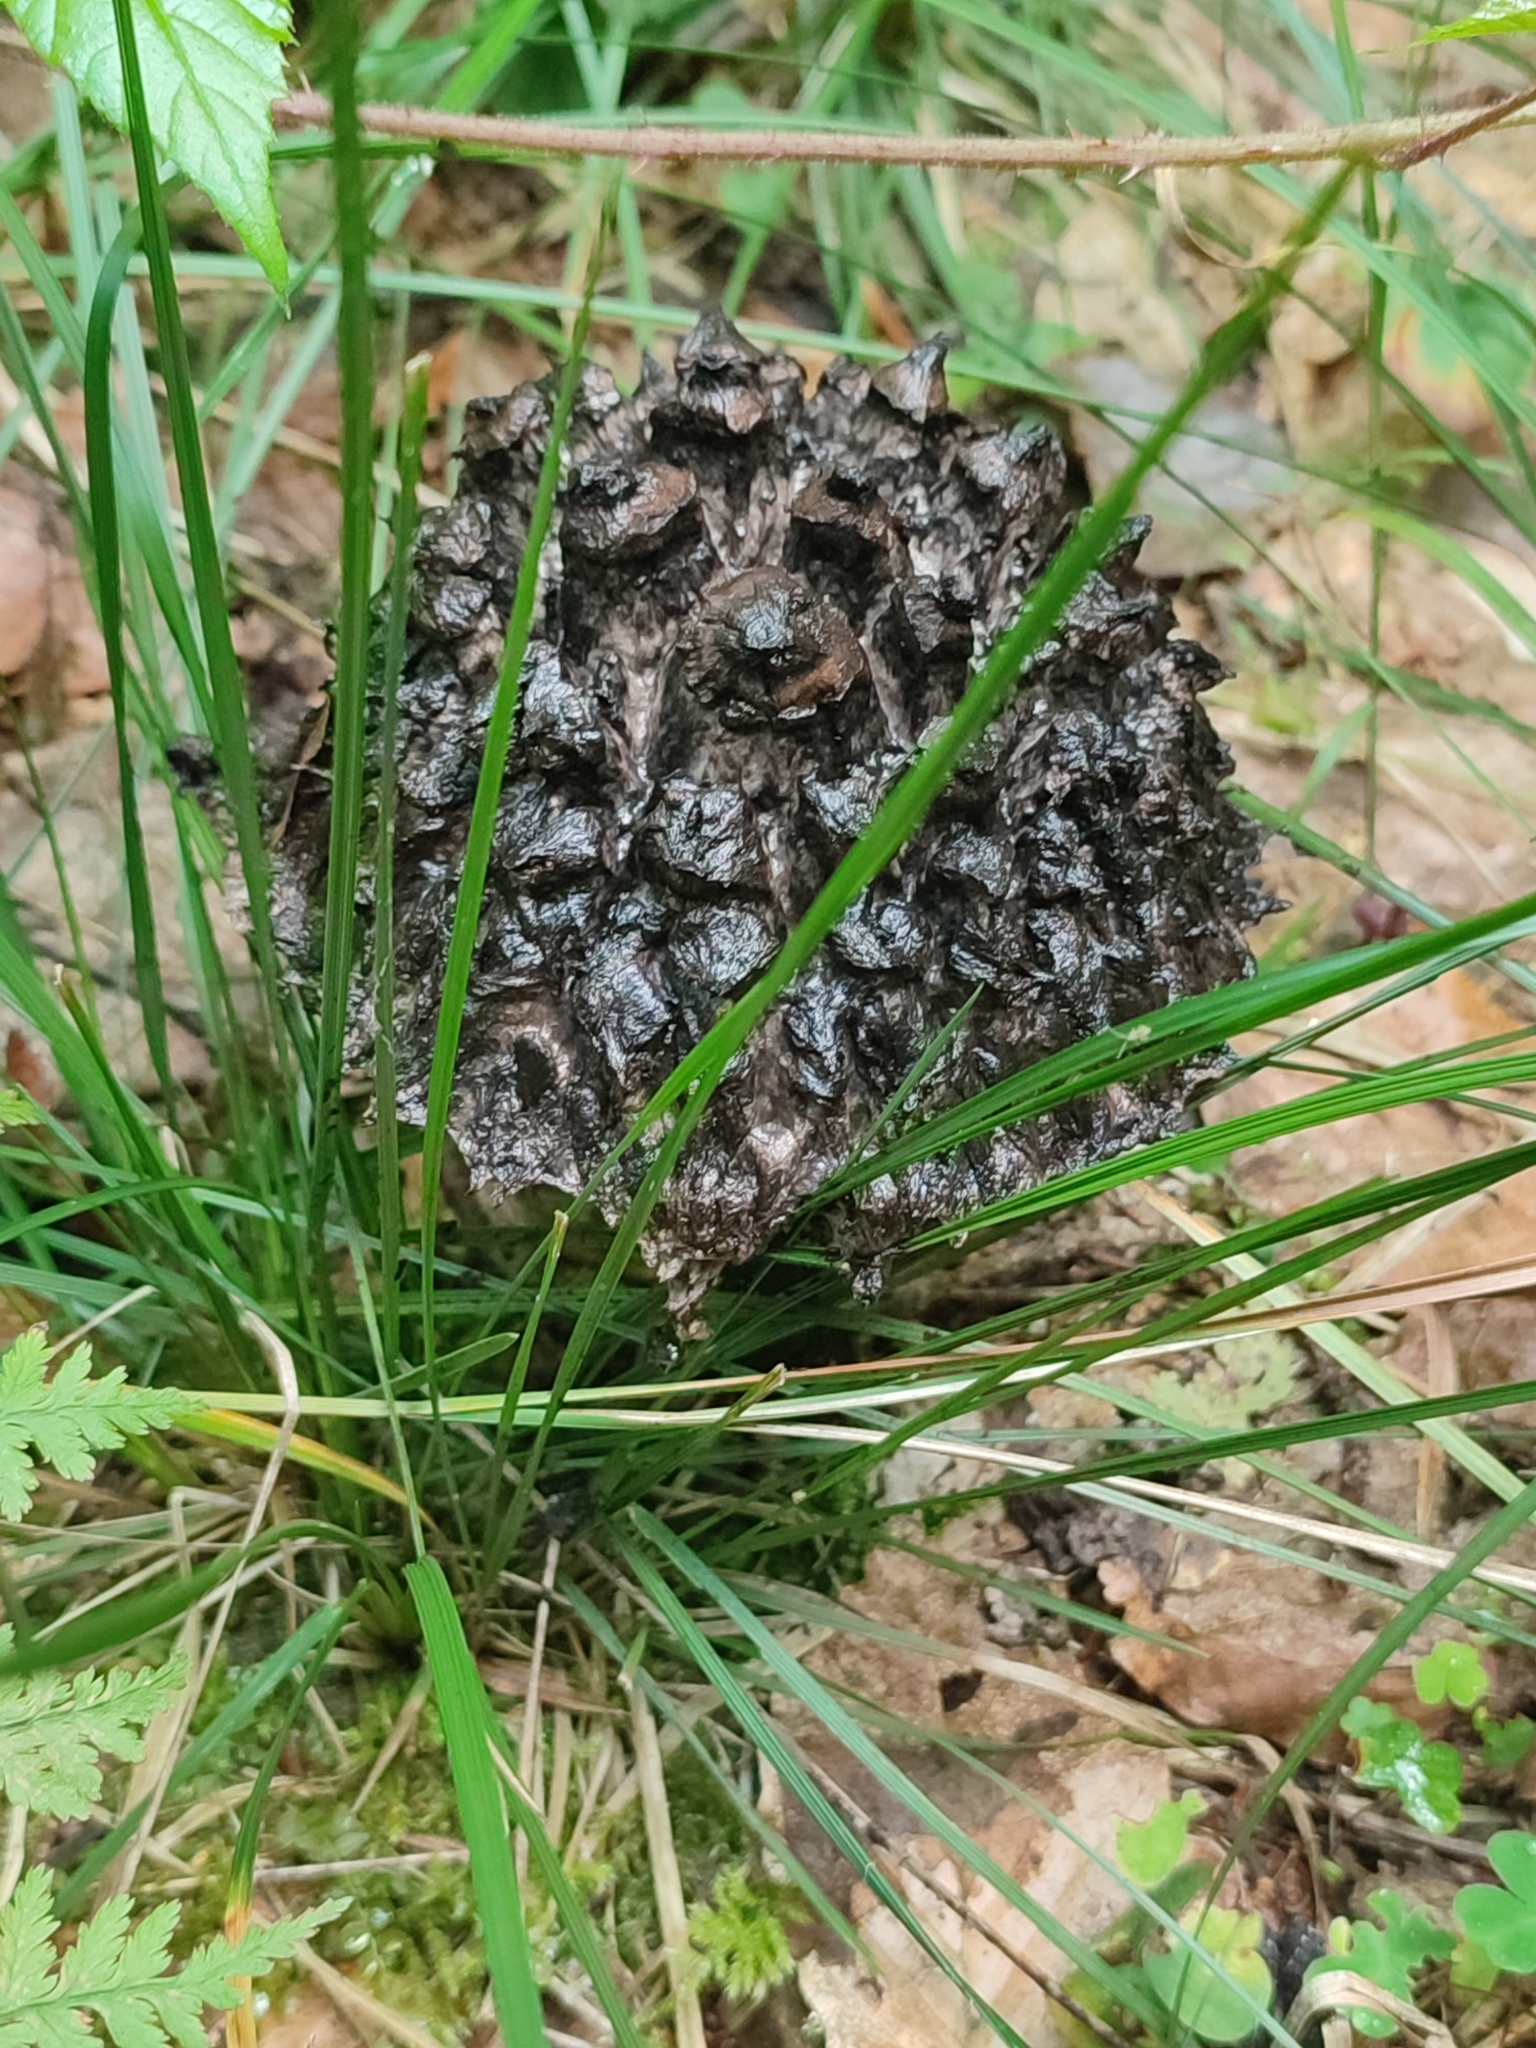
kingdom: Fungi
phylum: Basidiomycota
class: Agaricomycetes
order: Boletales
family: Boletaceae
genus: Strobilomyces
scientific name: Strobilomyces strobilaceus
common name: Old man of the woods
